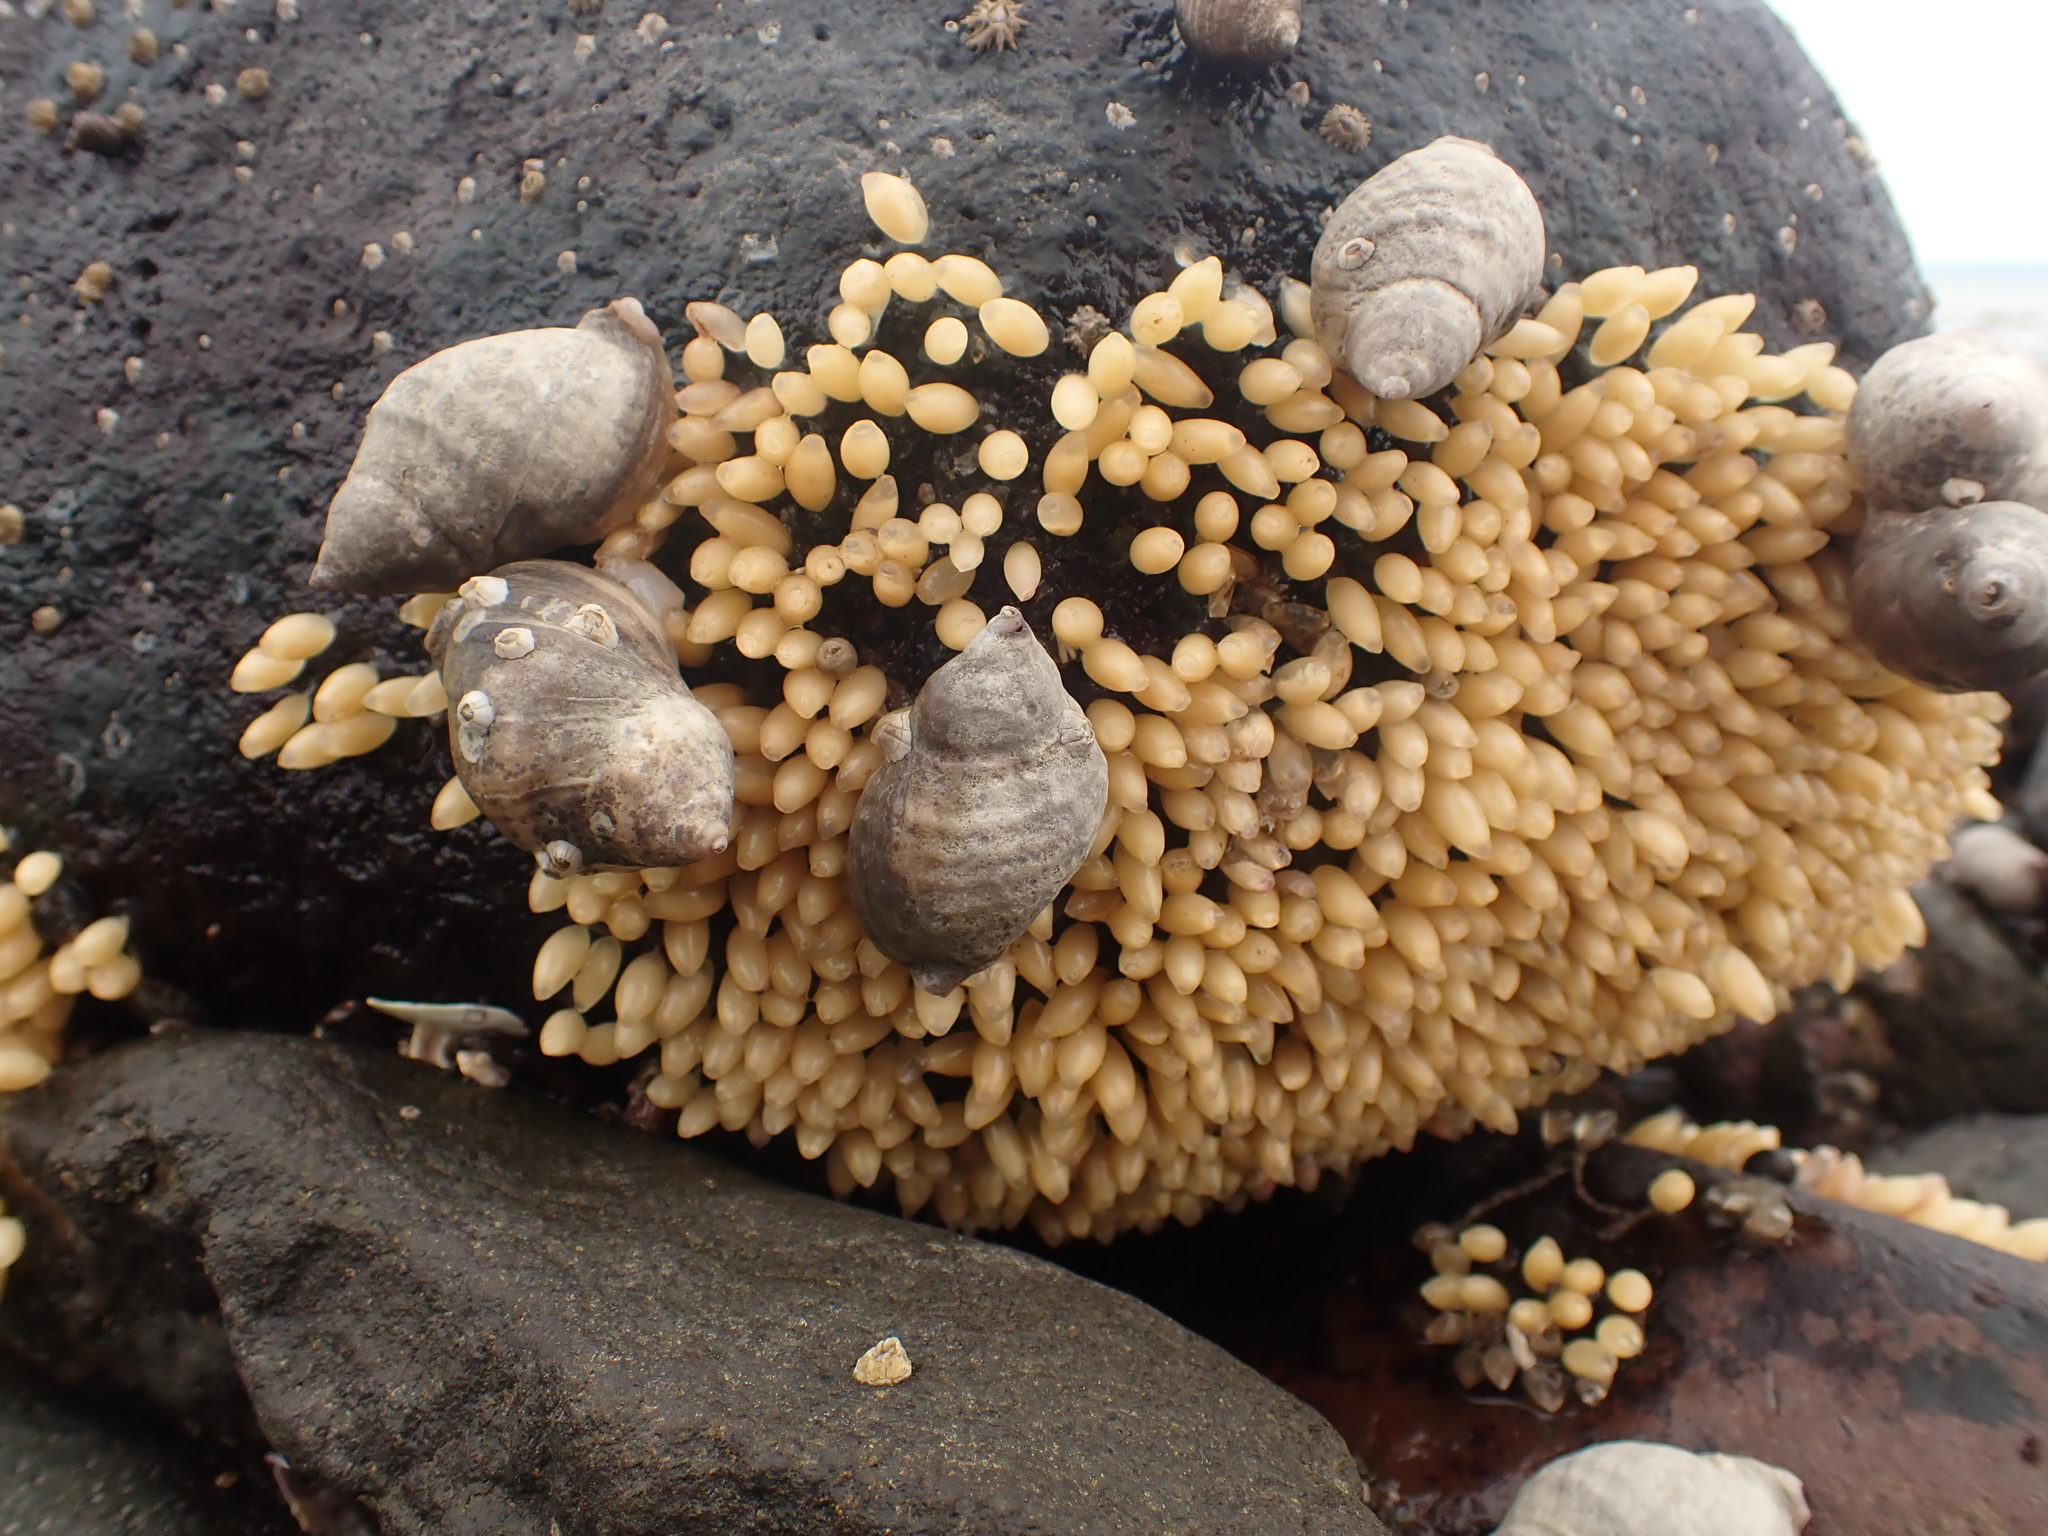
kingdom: Animalia
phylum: Mollusca
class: Gastropoda
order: Neogastropoda
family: Muricidae
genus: Nucella
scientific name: Nucella lapillus
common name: Dog whelk
